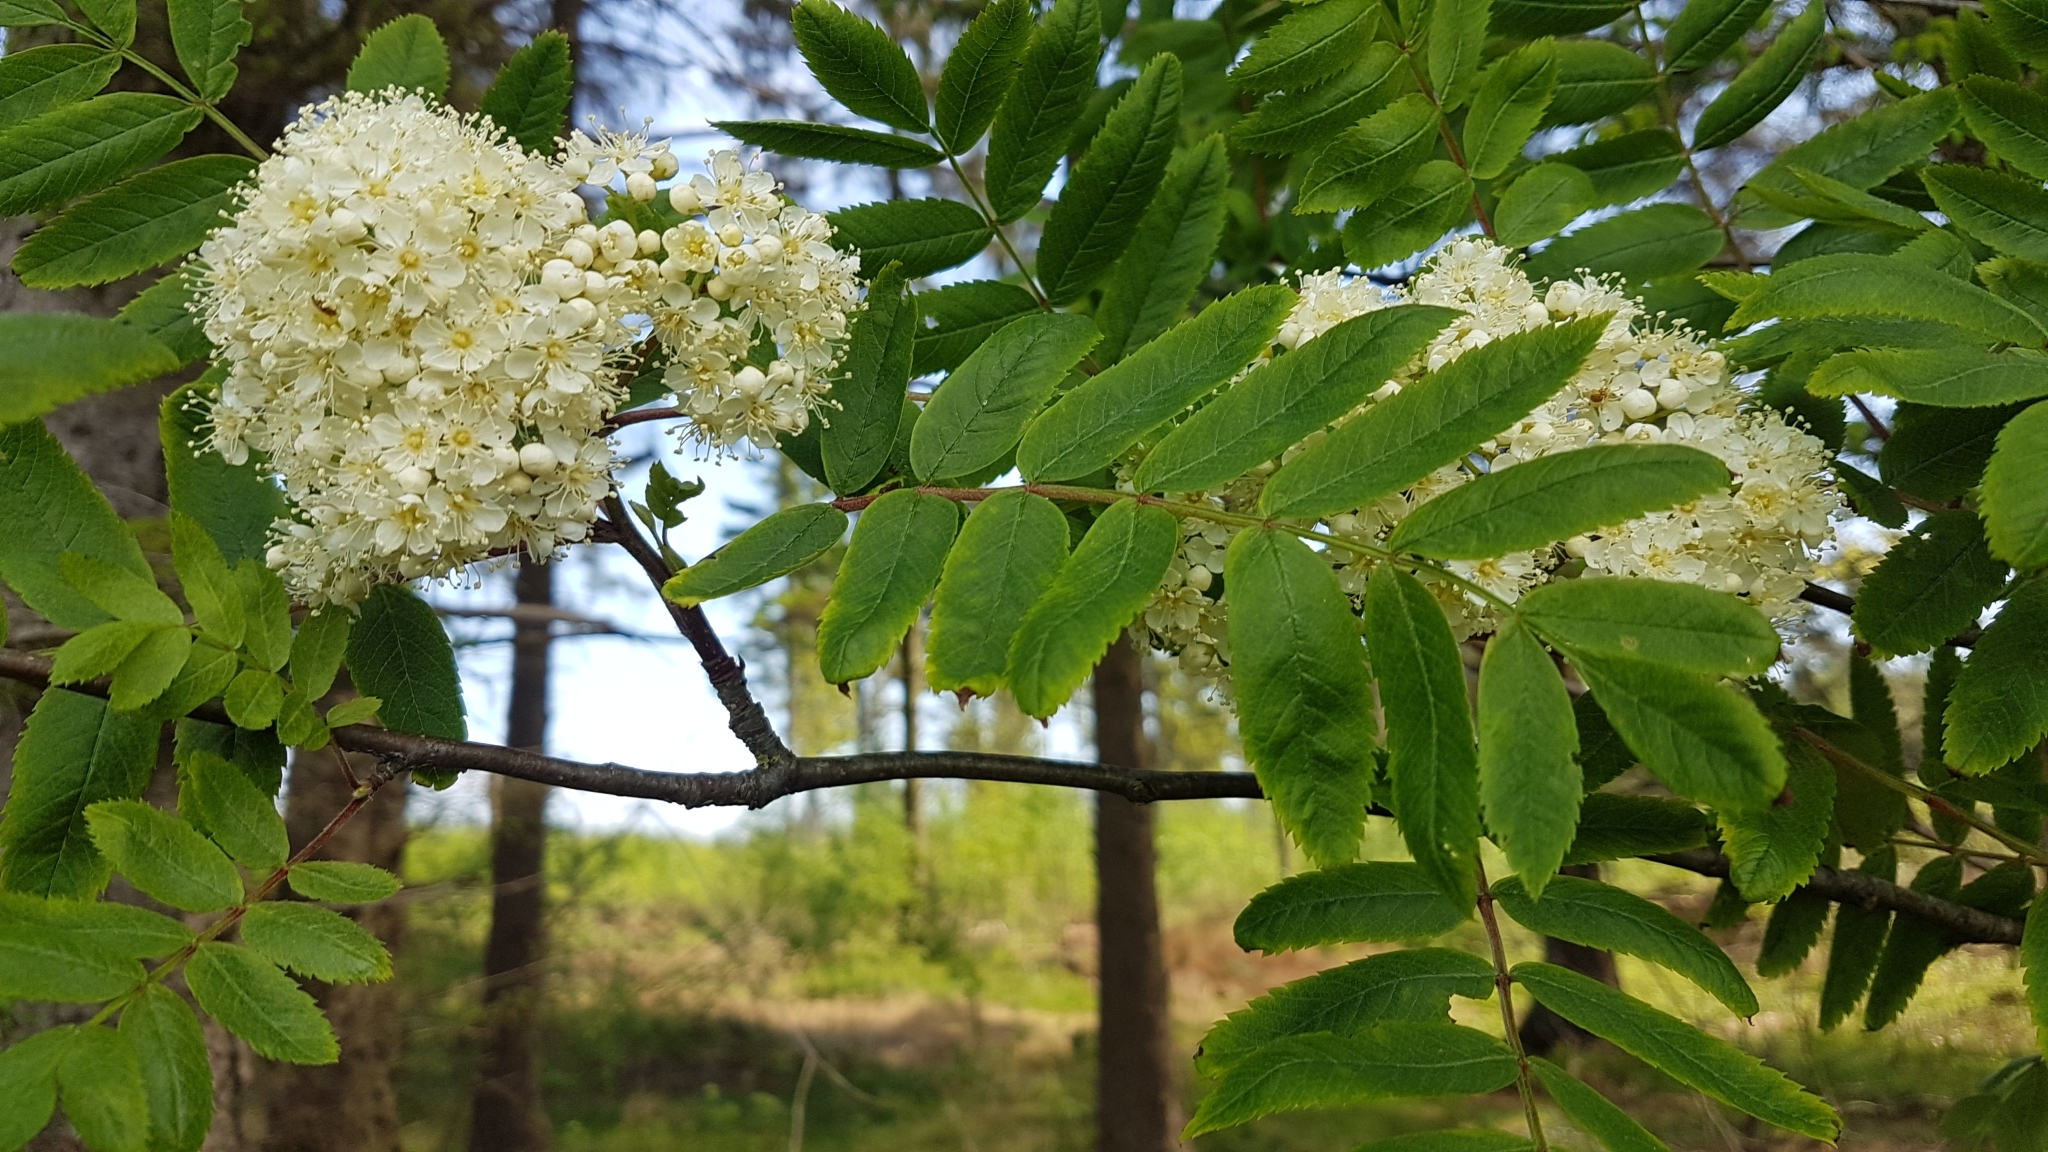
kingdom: Plantae
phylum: Tracheophyta
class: Magnoliopsida
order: Rosales
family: Rosaceae
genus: Sorbus
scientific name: Sorbus aucuparia
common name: Rowan
